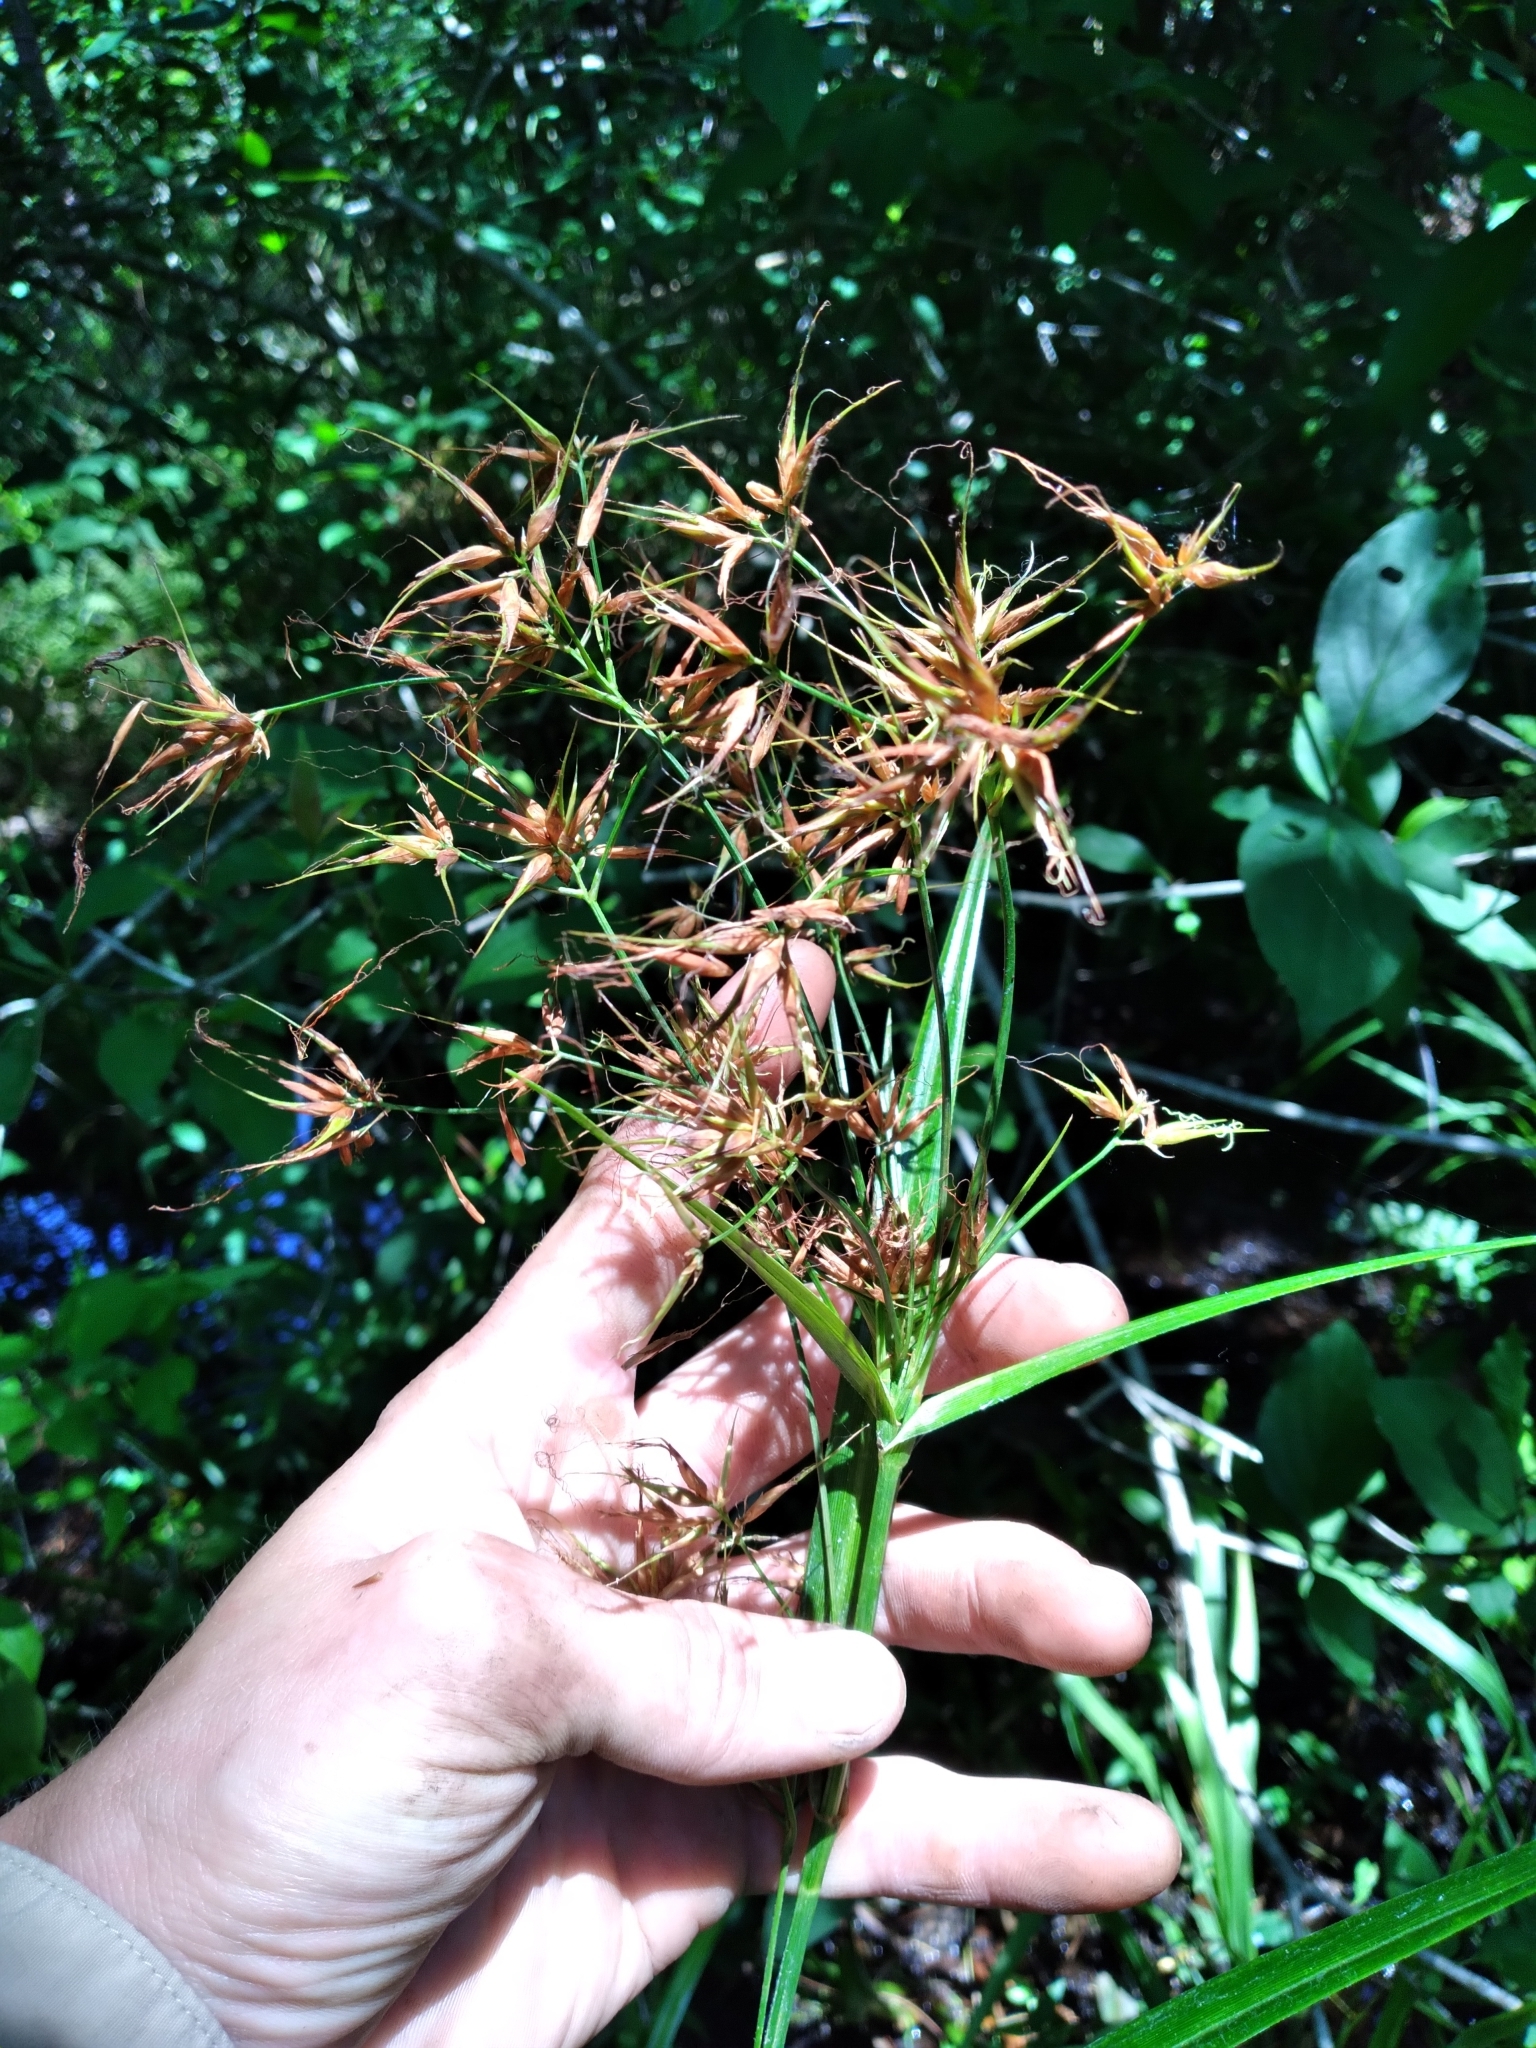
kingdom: Plantae
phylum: Tracheophyta
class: Liliopsida
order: Poales
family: Cyperaceae
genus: Rhynchospora
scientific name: Rhynchospora careyana
